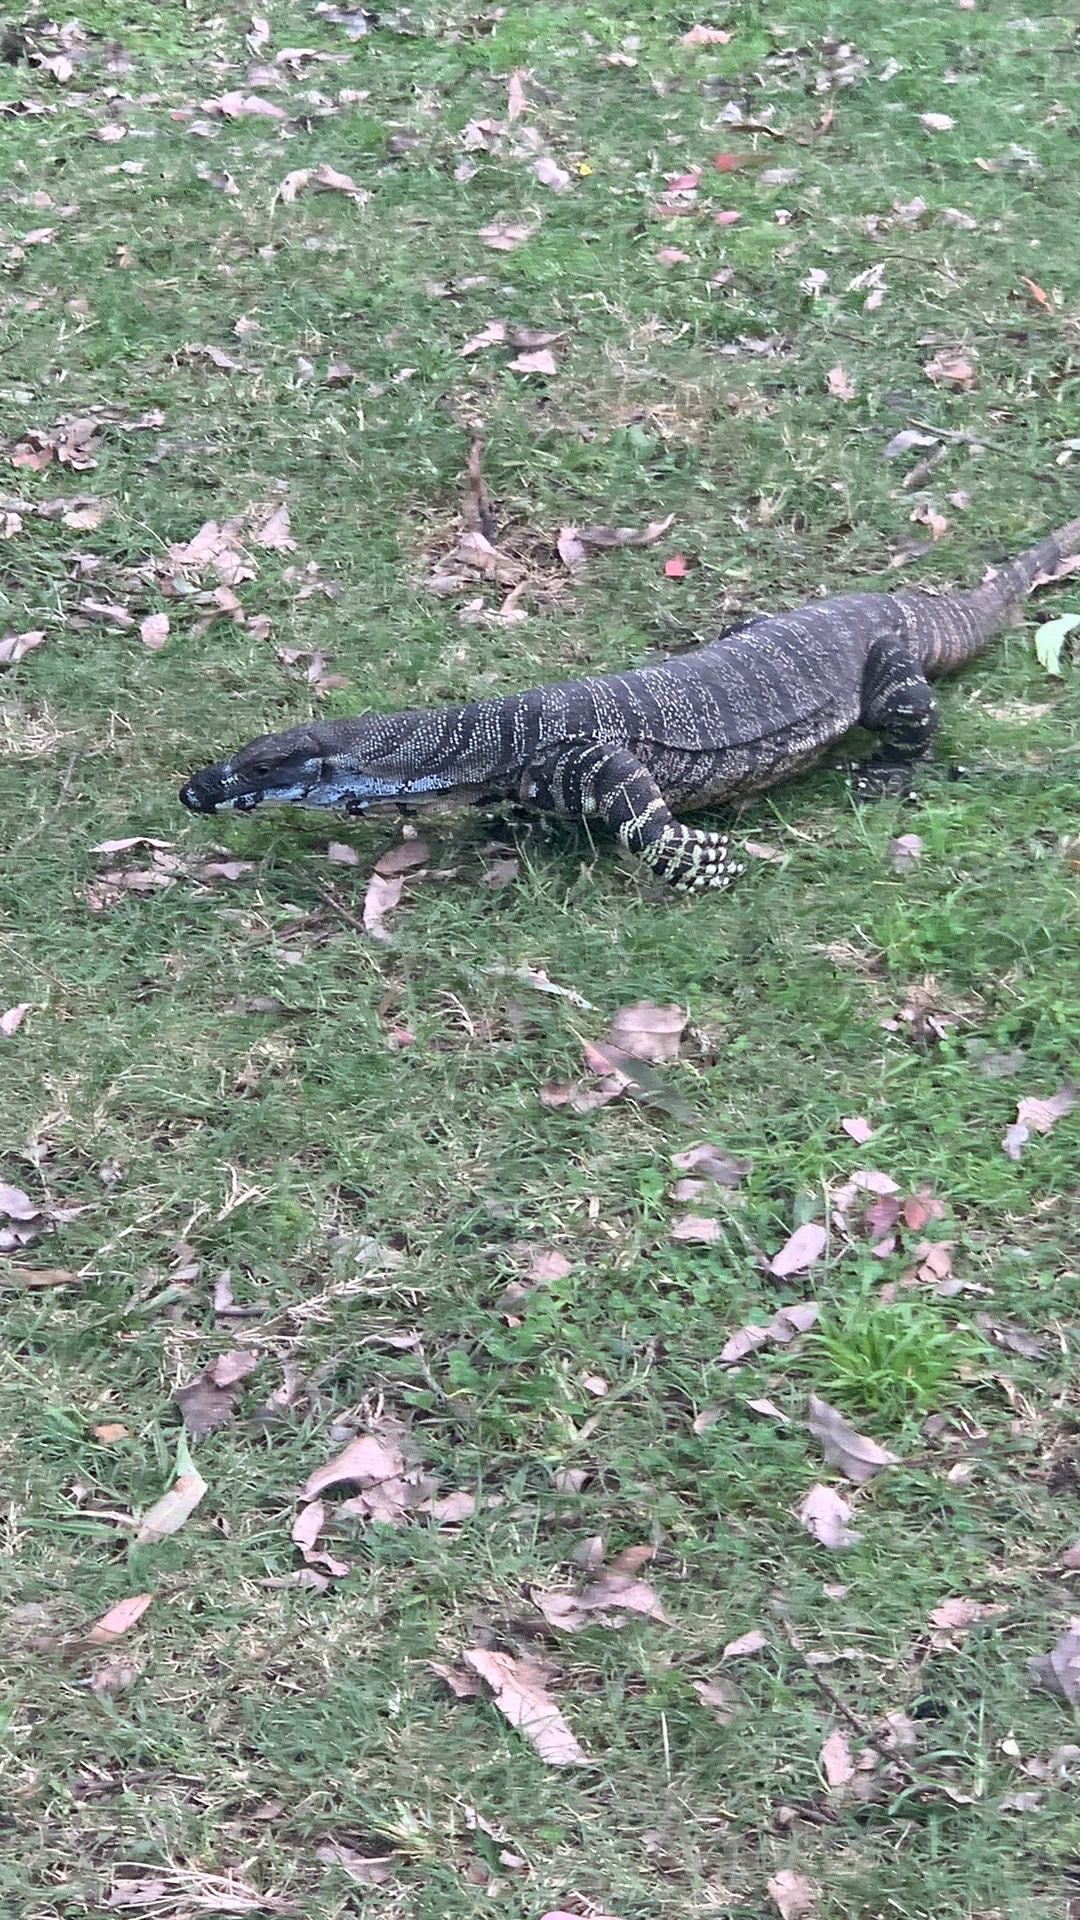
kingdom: Animalia
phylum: Chordata
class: Squamata
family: Varanidae
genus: Varanus
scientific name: Varanus varius
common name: Lace monitor
